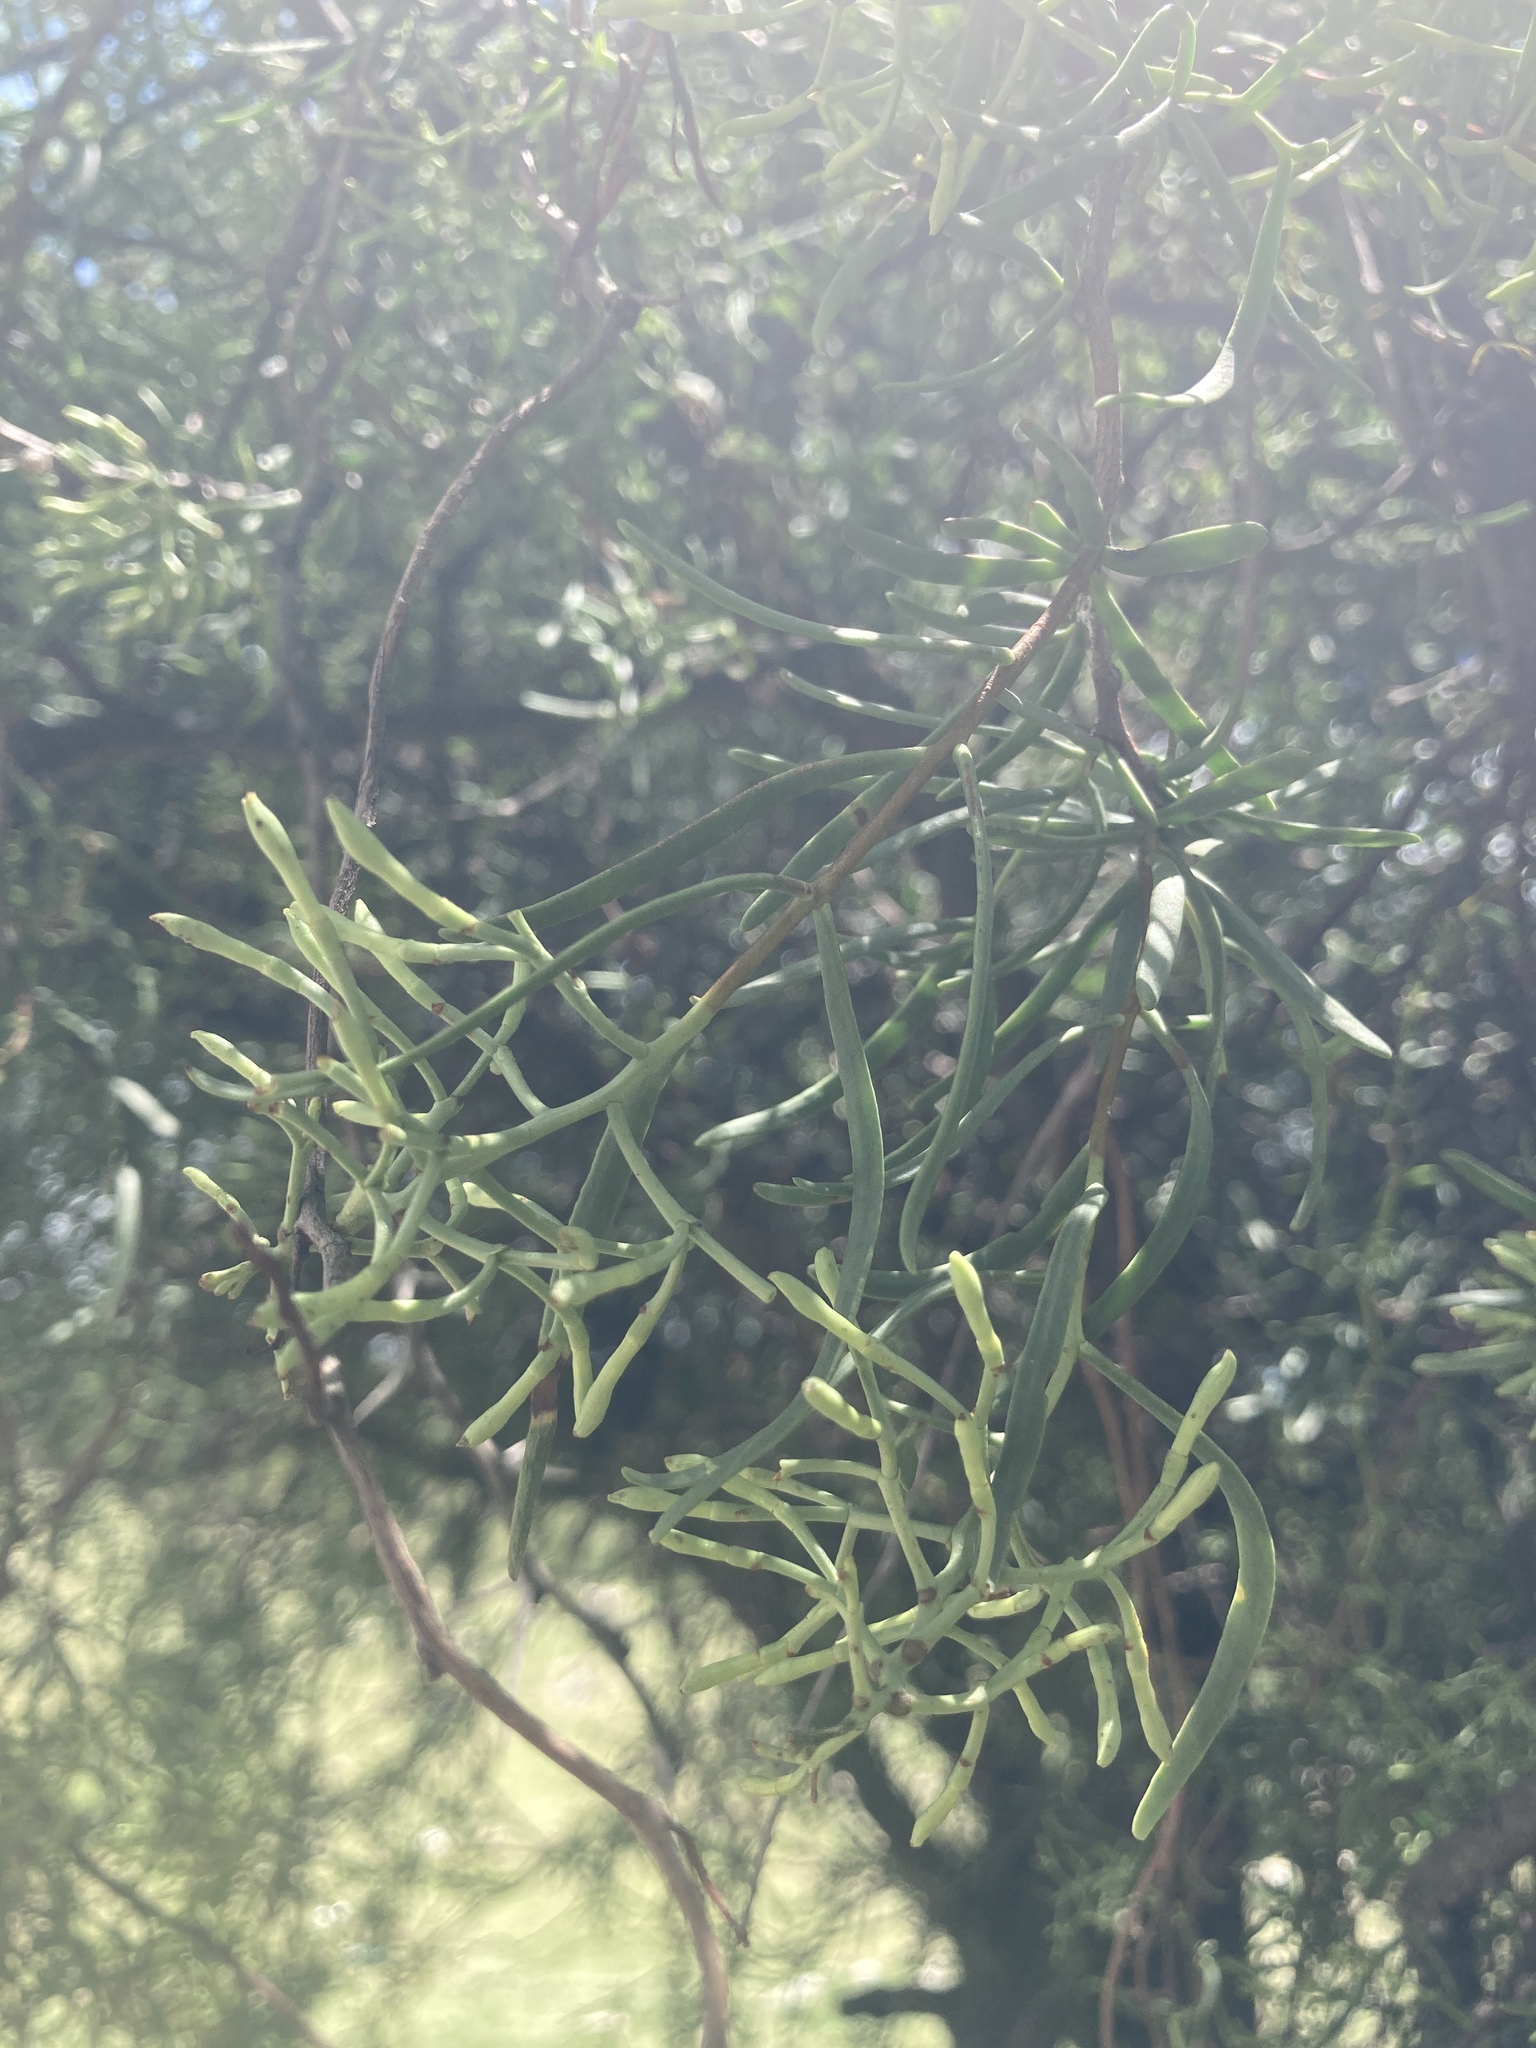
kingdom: Plantae
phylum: Tracheophyta
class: Magnoliopsida
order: Santalales
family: Loranthaceae
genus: Tripodanthus
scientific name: Tripodanthus flagellaris
